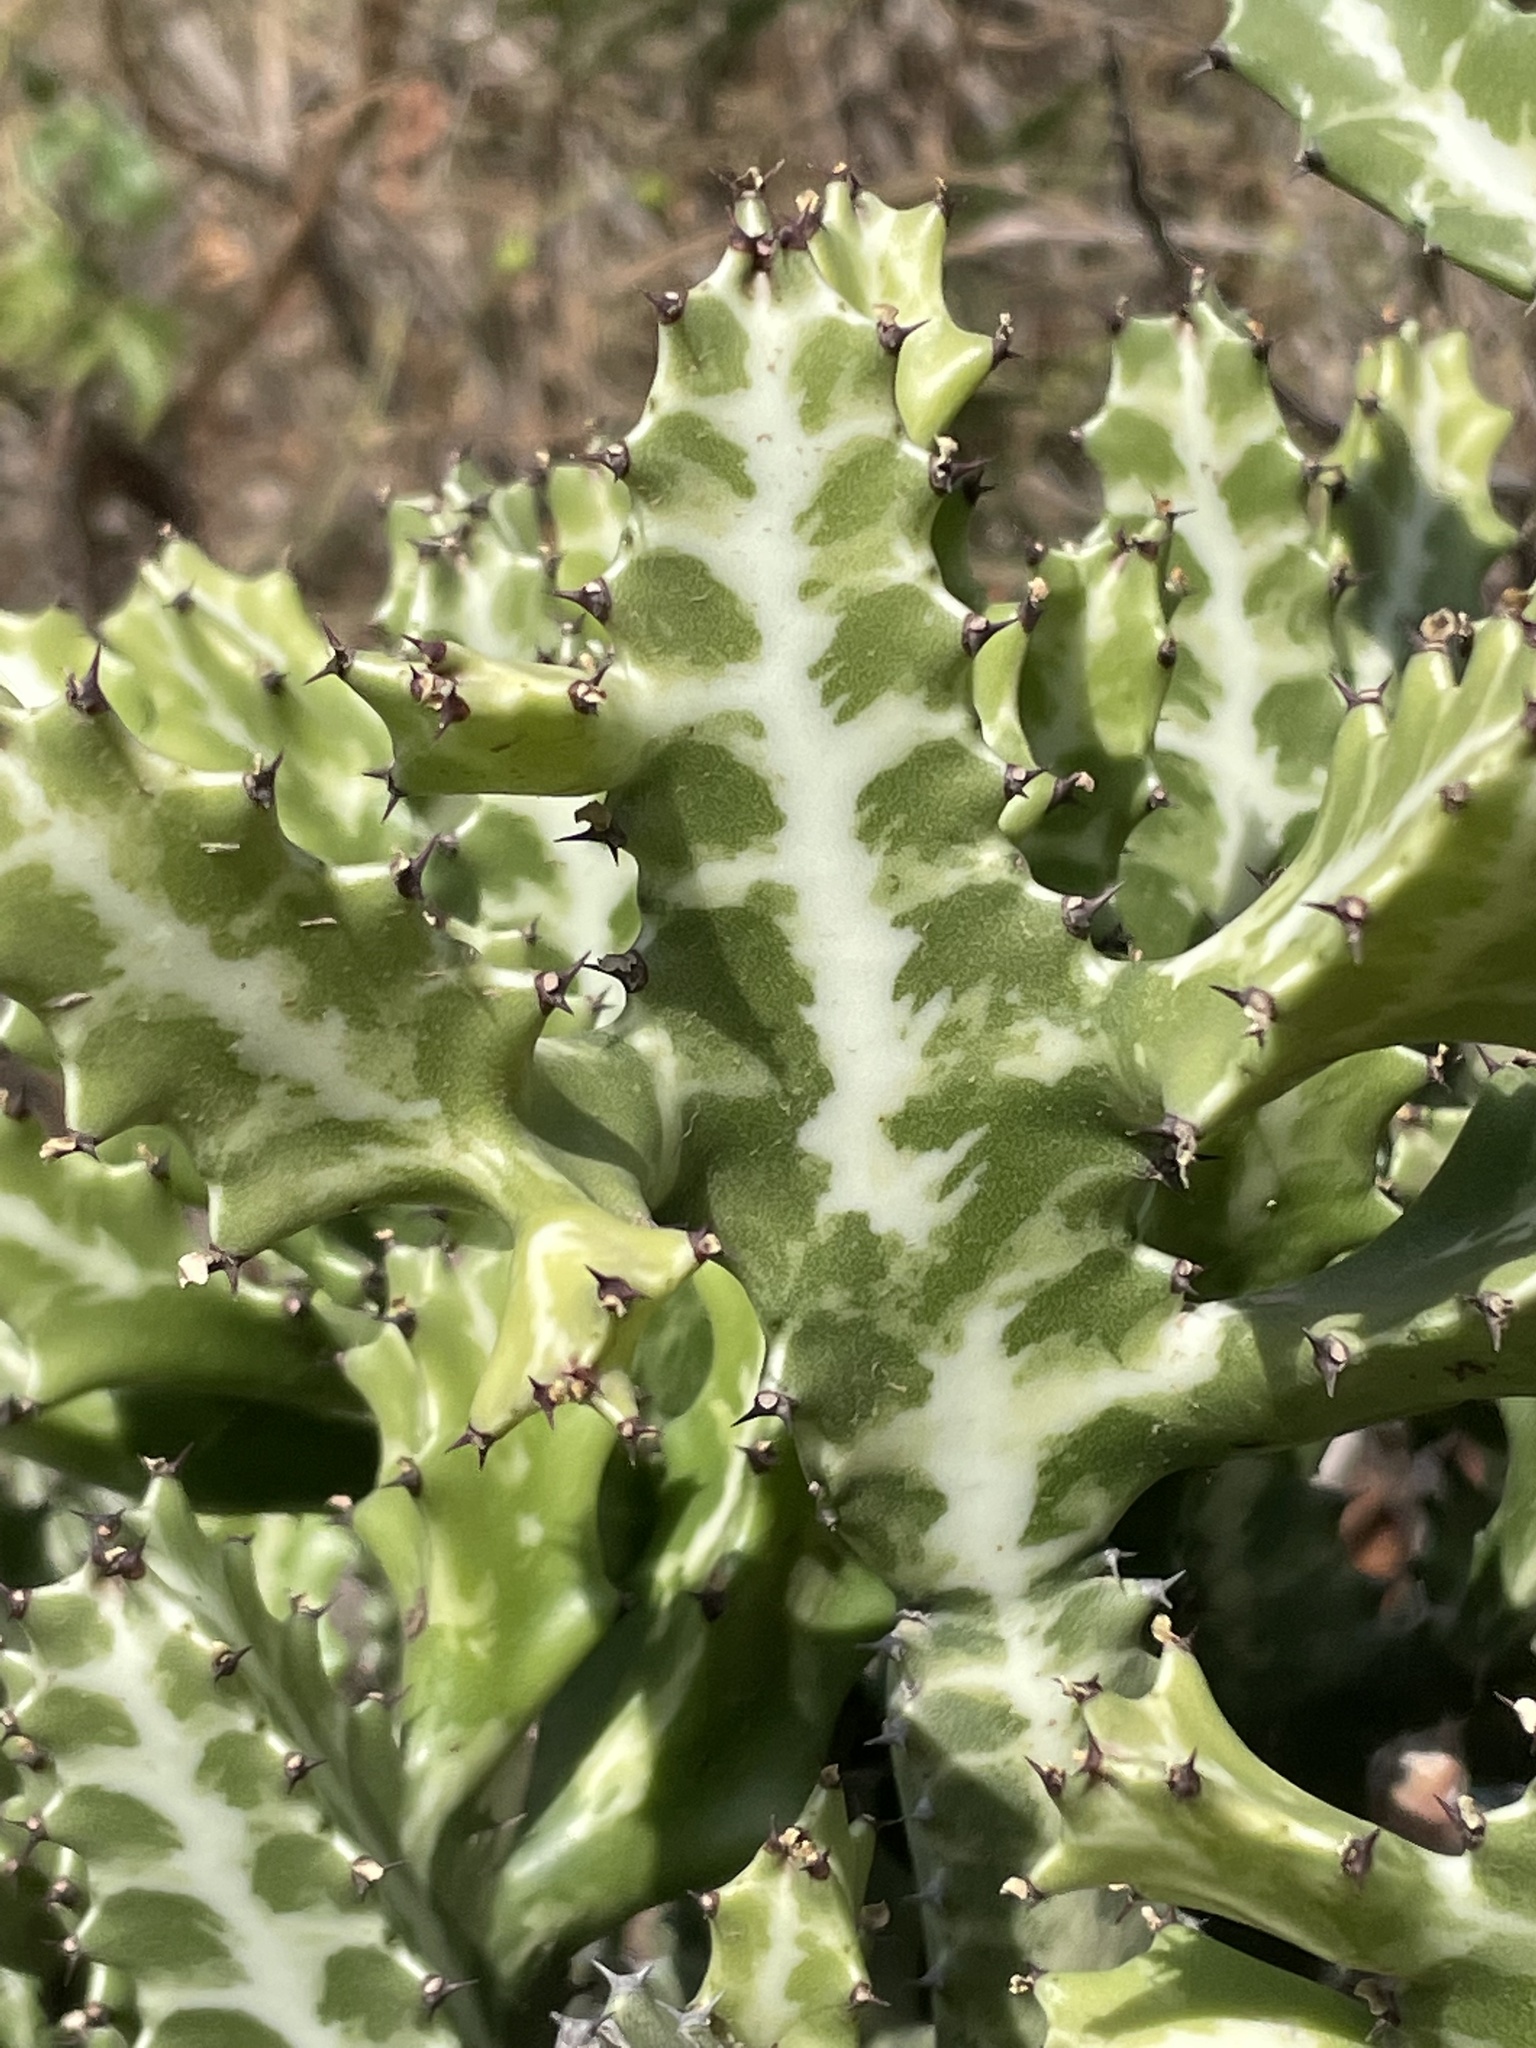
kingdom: Plantae
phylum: Tracheophyta
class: Magnoliopsida
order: Malpighiales
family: Euphorbiaceae
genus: Euphorbia
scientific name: Euphorbia lactea
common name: Mottled spurge
